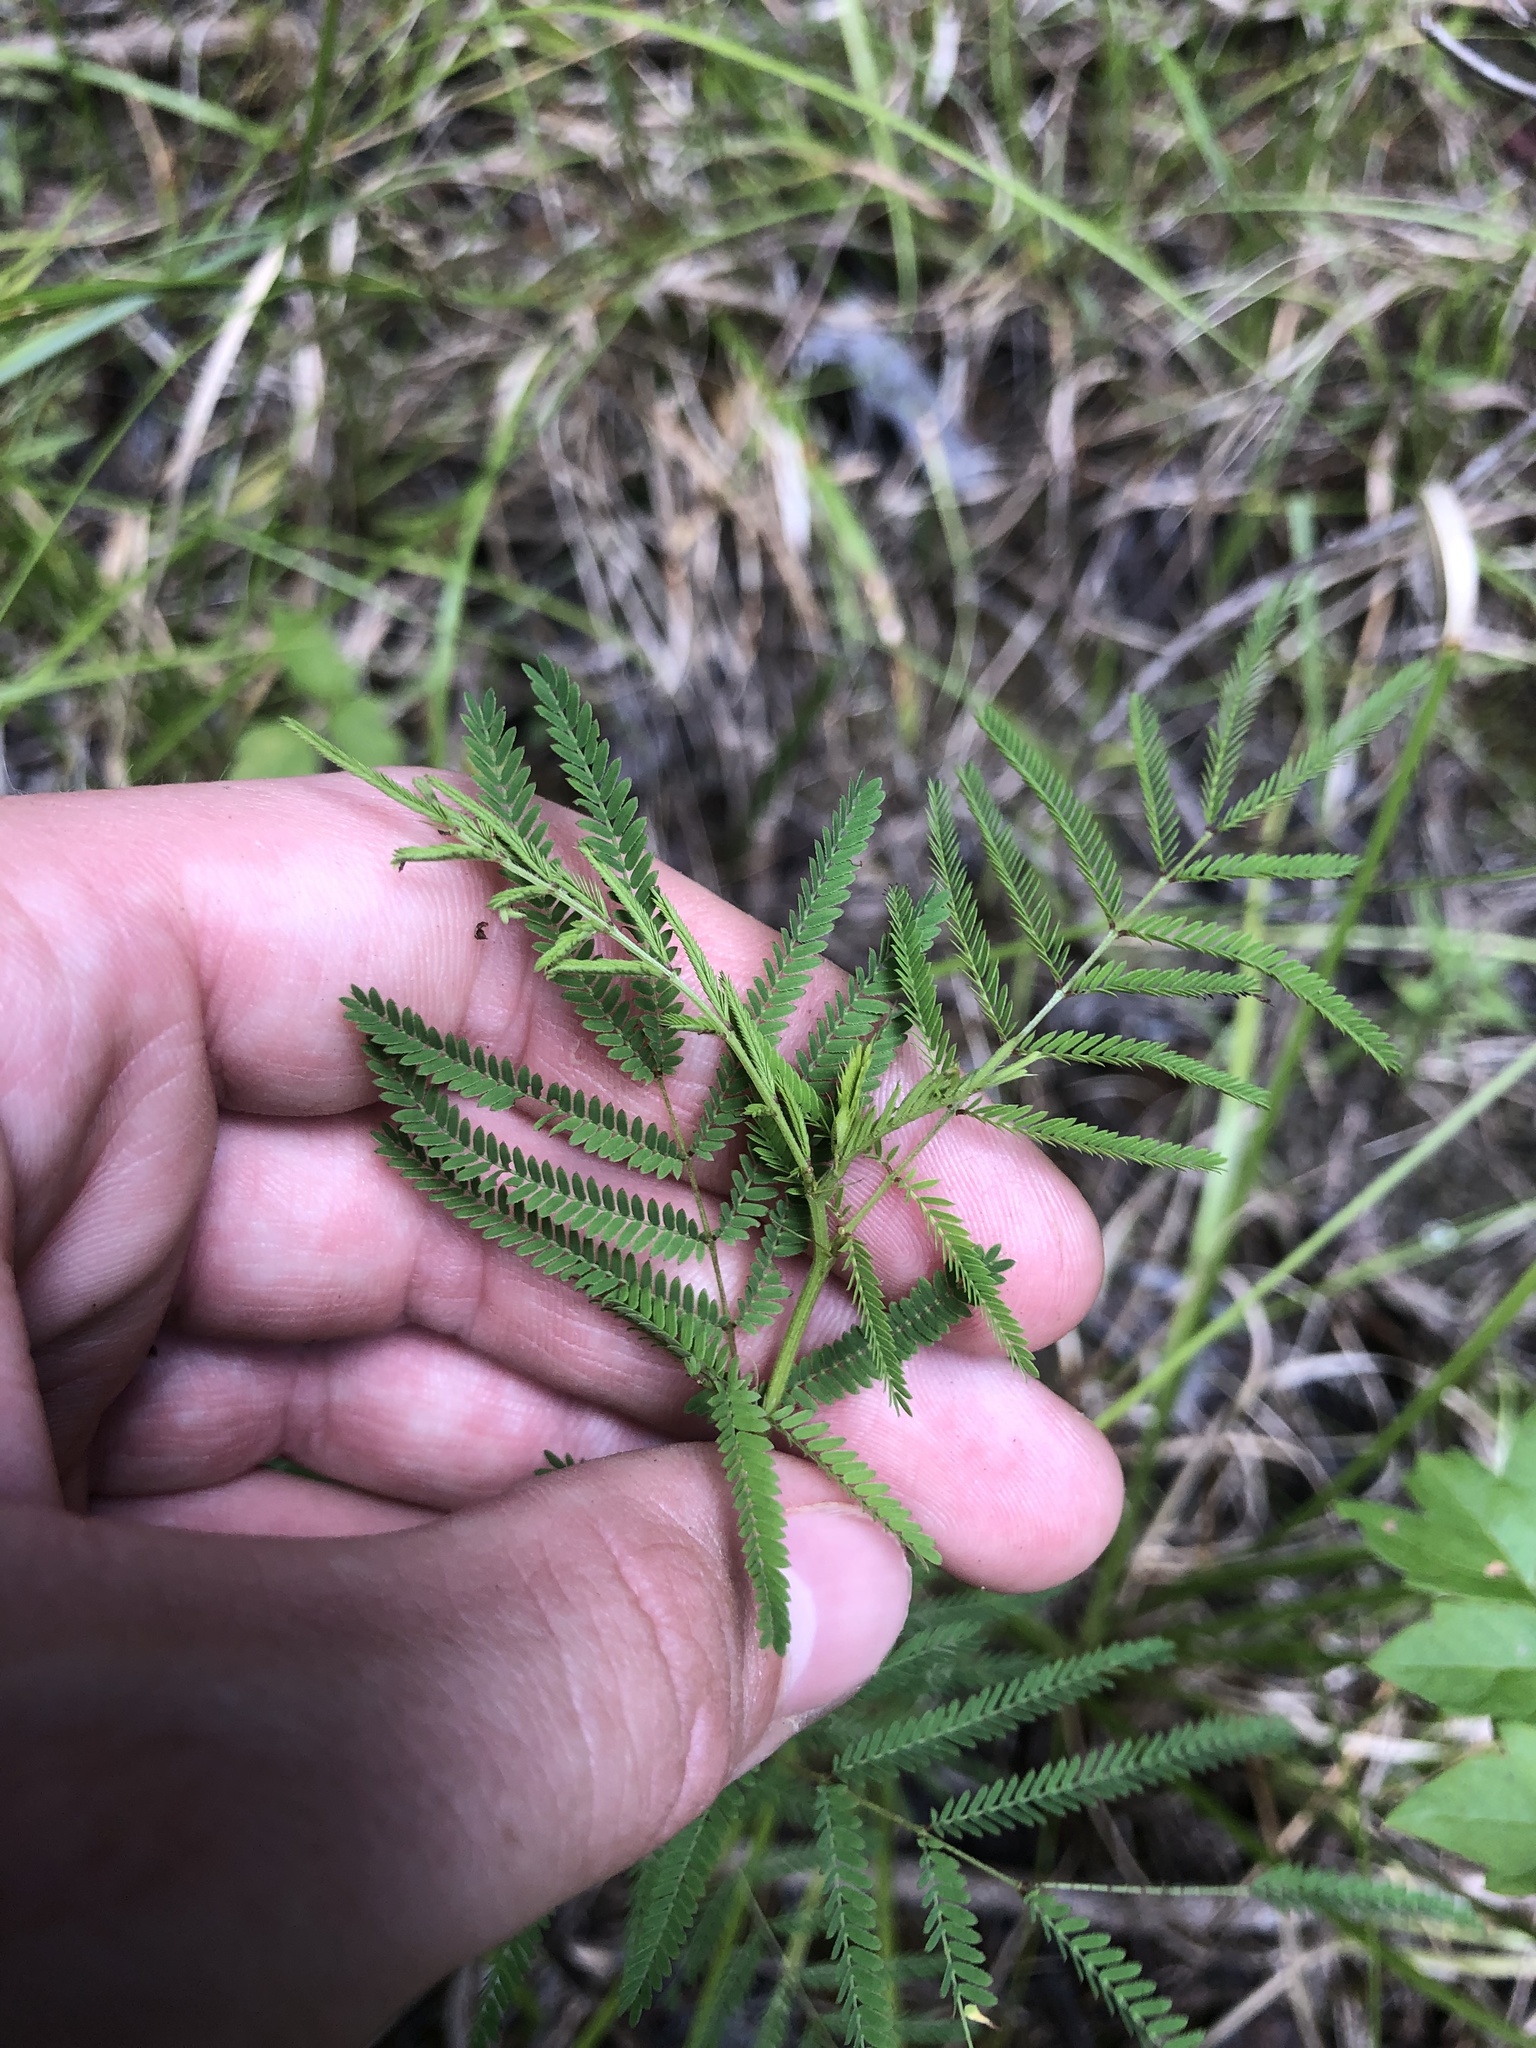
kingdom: Plantae
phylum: Tracheophyta
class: Magnoliopsida
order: Fabales
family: Fabaceae
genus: Desmanthus
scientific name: Desmanthus illinoensis
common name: Illinois bundle-flower
